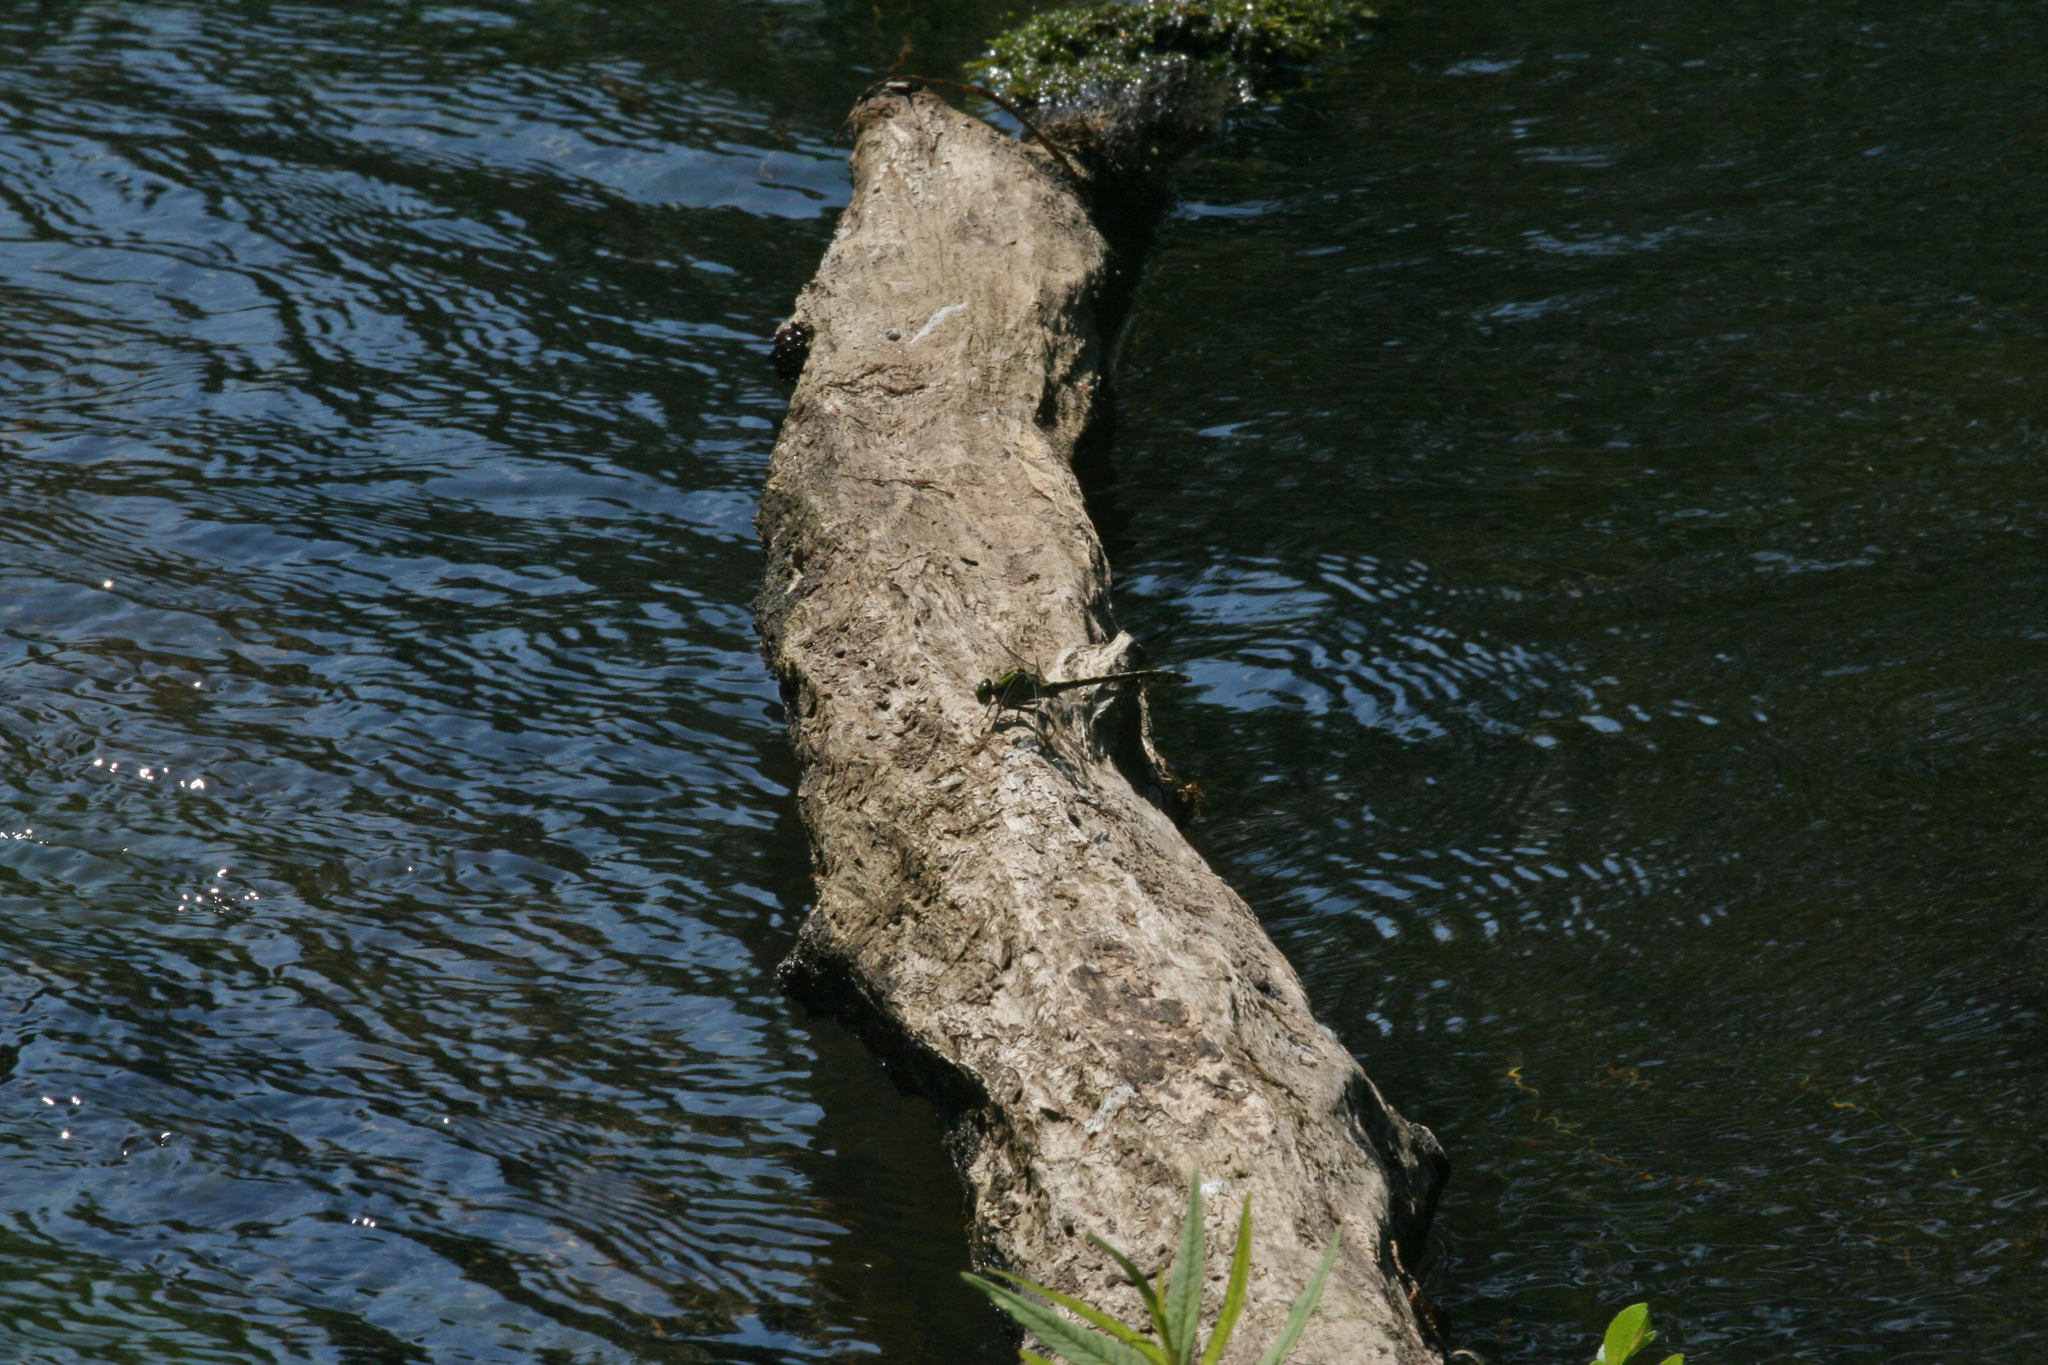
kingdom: Animalia
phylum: Arthropoda
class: Insecta
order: Odonata
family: Gomphidae
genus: Ophiogomphus
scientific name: Ophiogomphus cecilia
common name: Green snaketail
